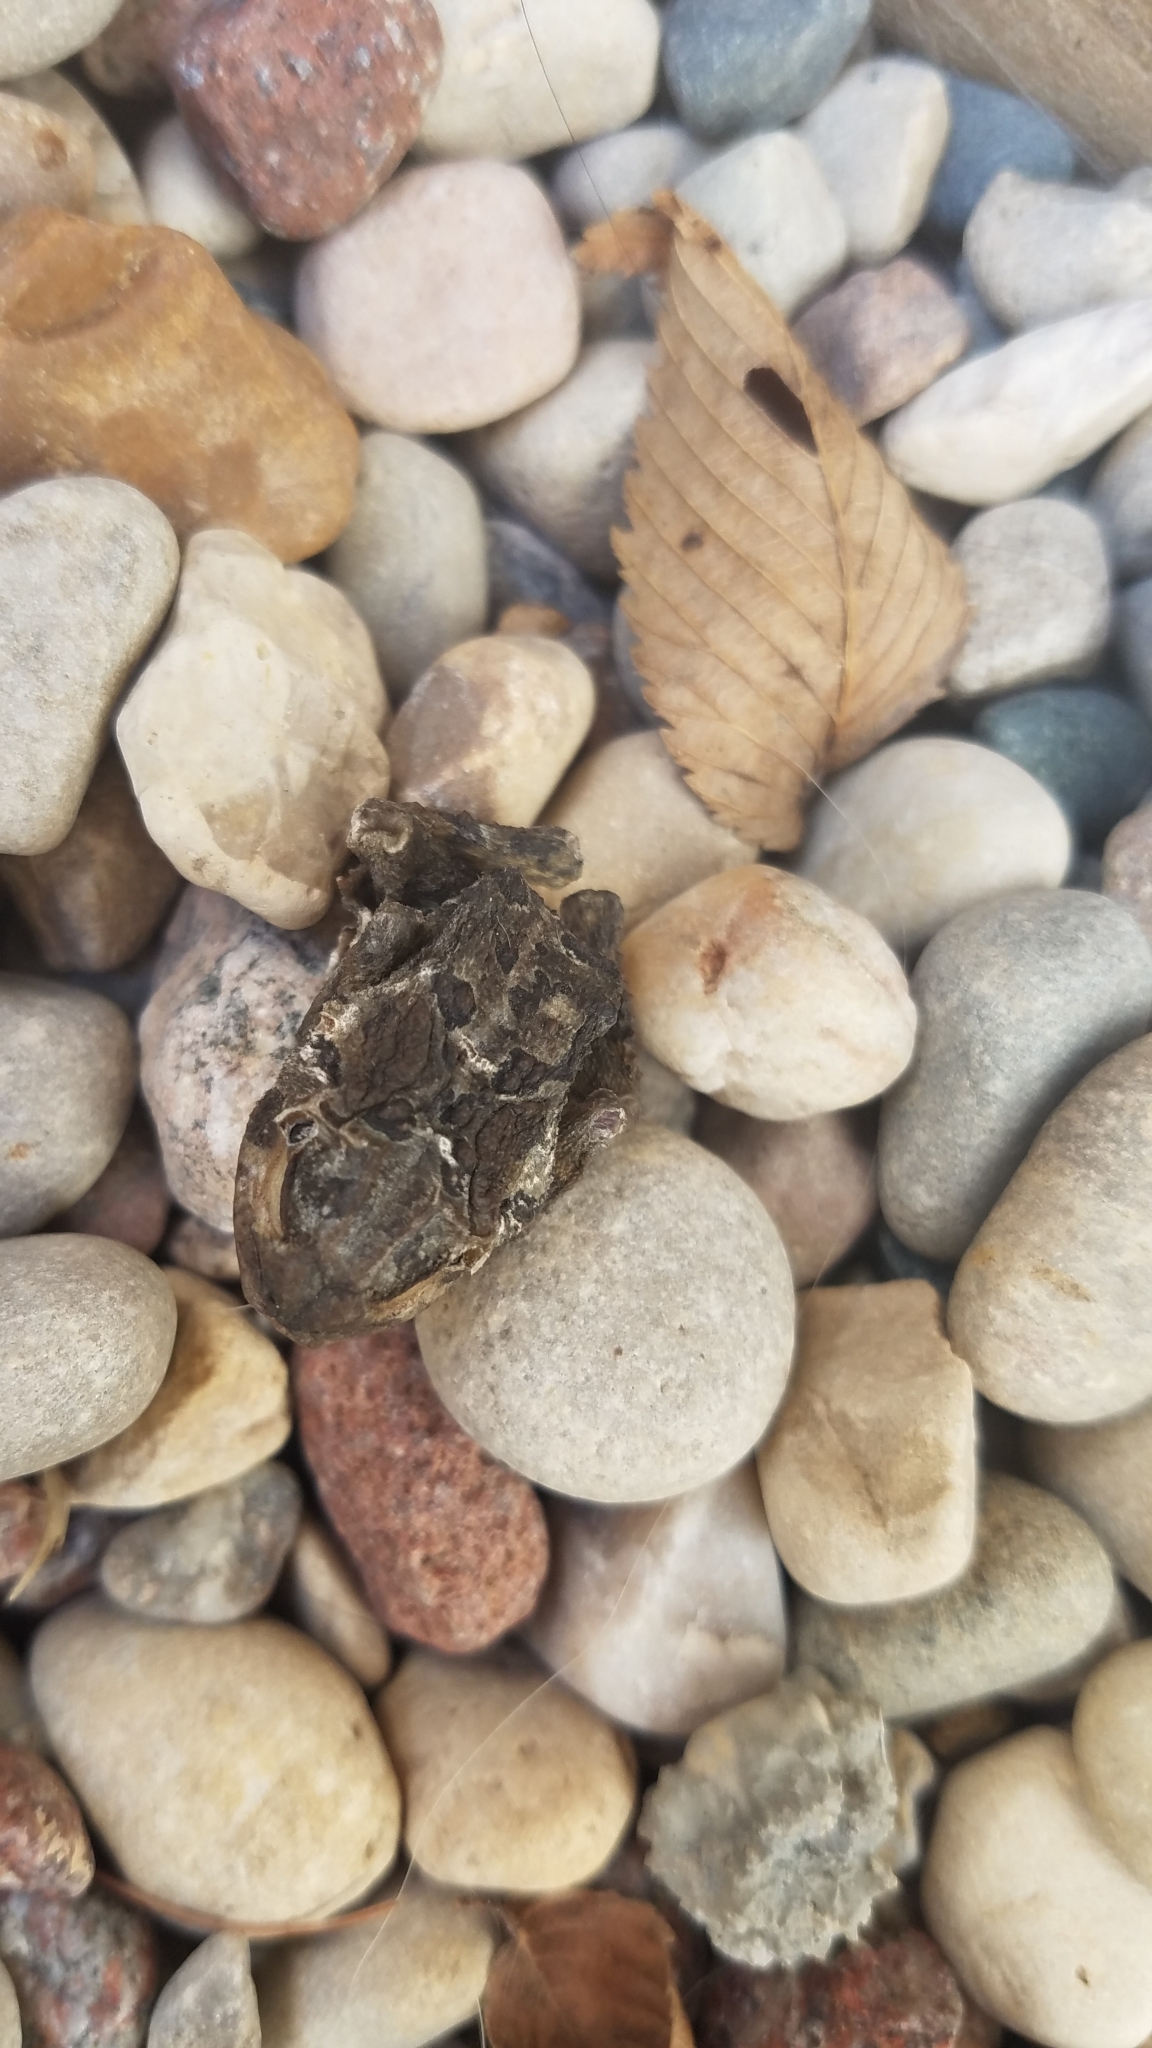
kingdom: Animalia
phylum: Chordata
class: Amphibia
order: Anura
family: Bufonidae
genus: Anaxyrus
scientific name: Anaxyrus americanus
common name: American toad
